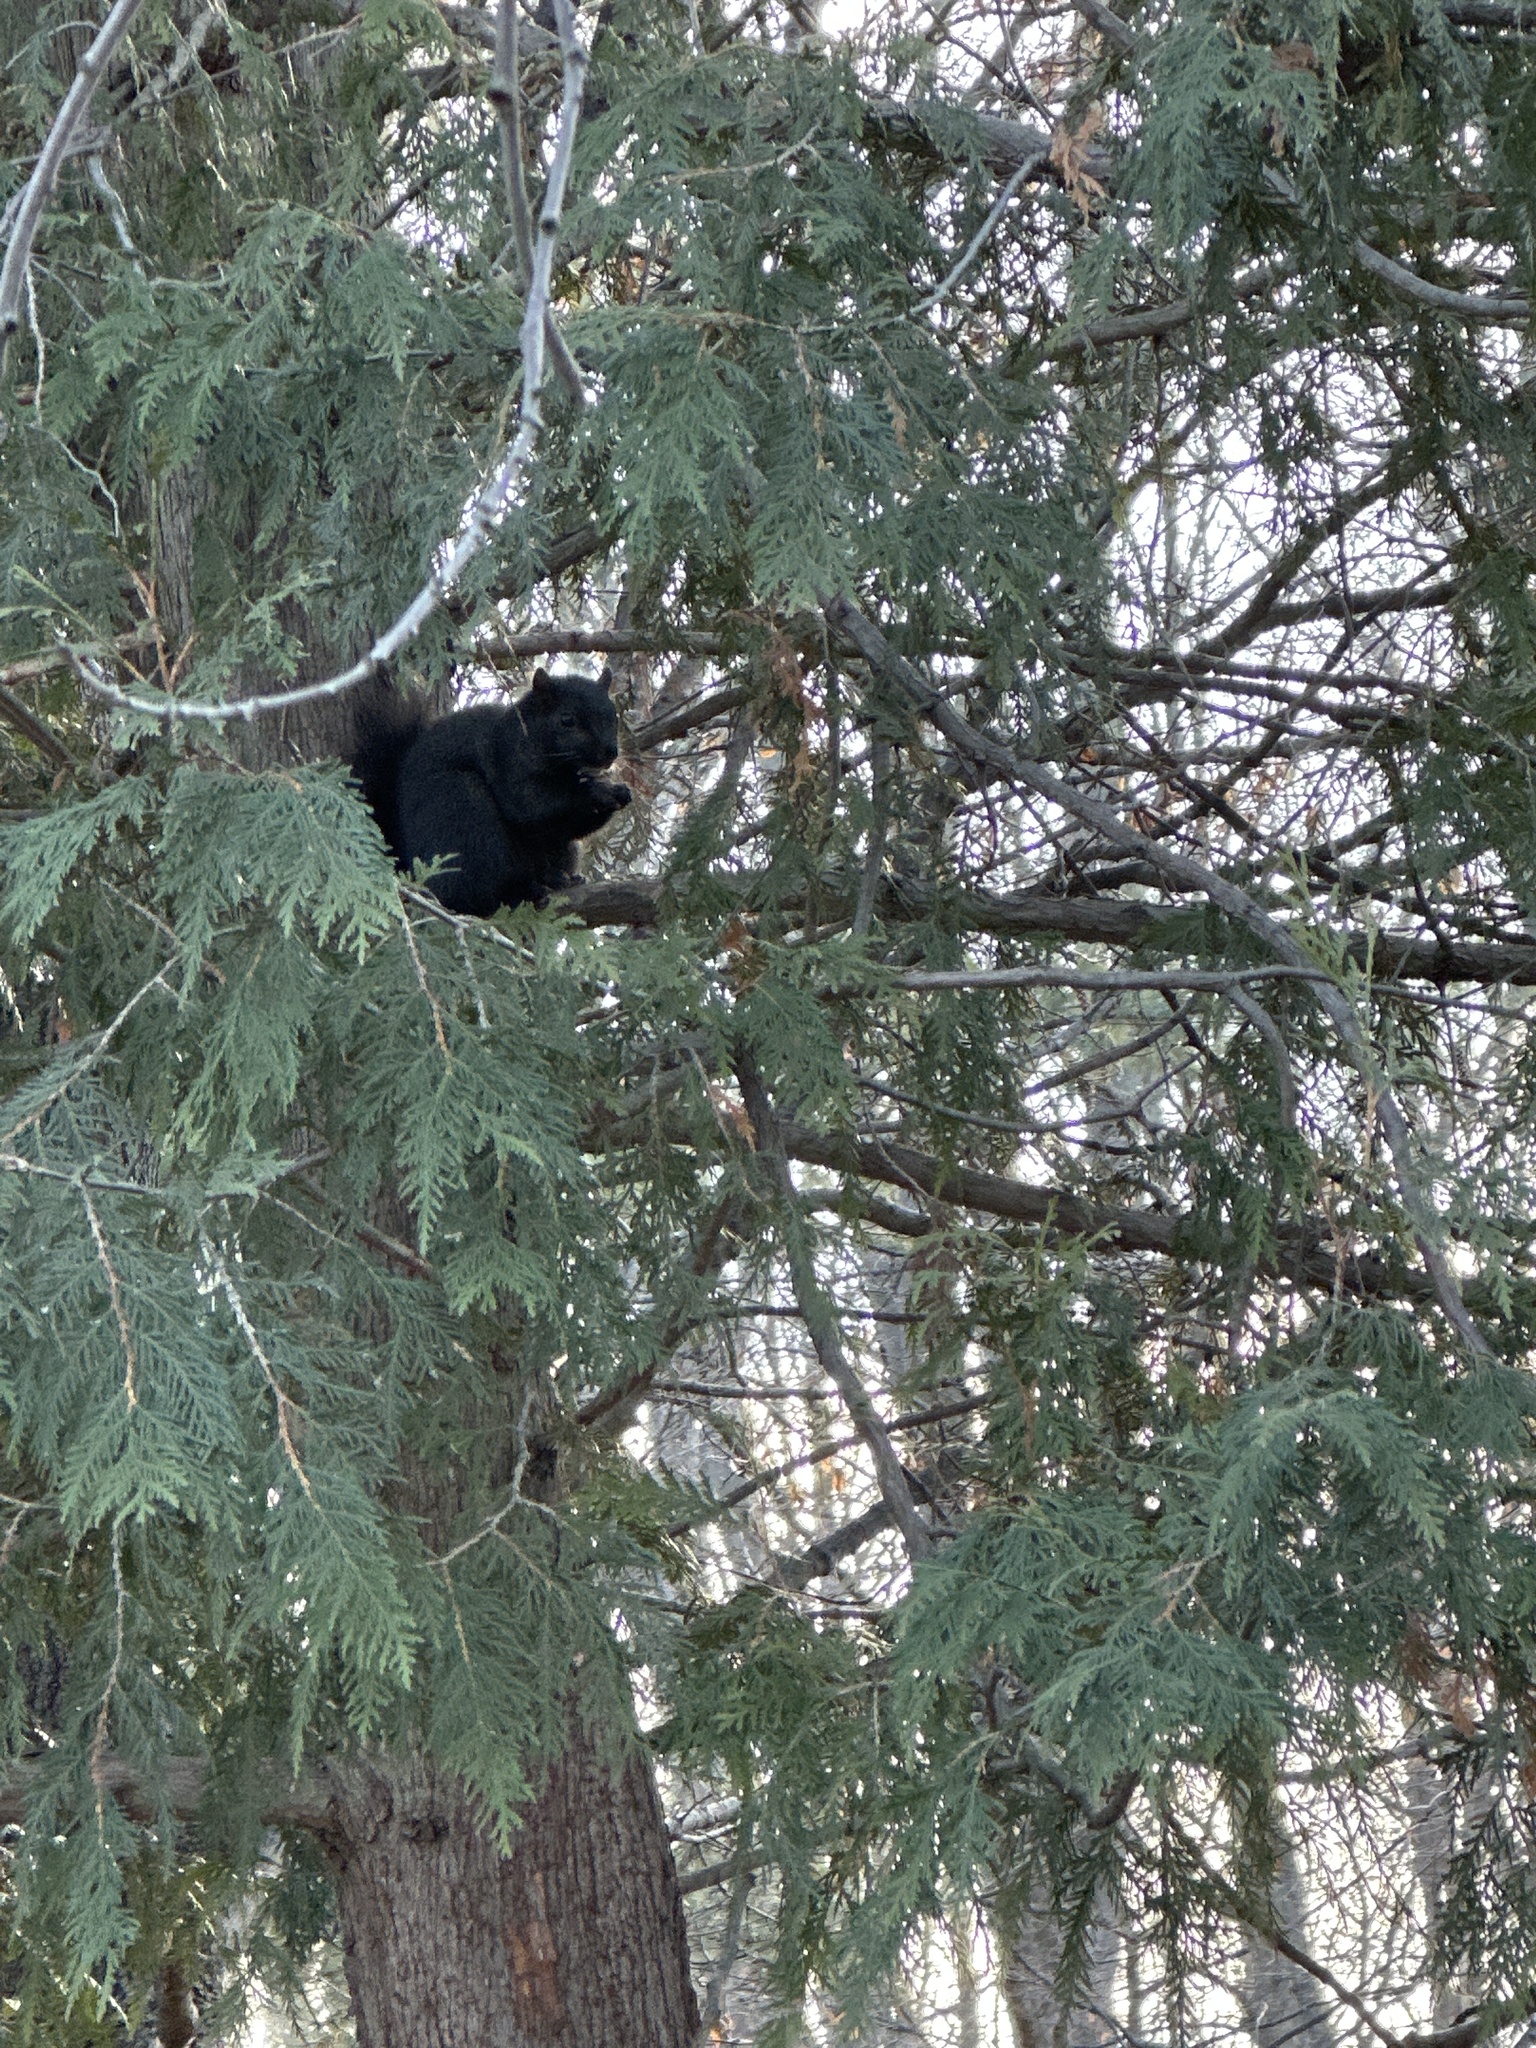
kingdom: Animalia
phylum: Chordata
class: Mammalia
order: Rodentia
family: Sciuridae
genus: Sciurus
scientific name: Sciurus carolinensis
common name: Eastern gray squirrel
